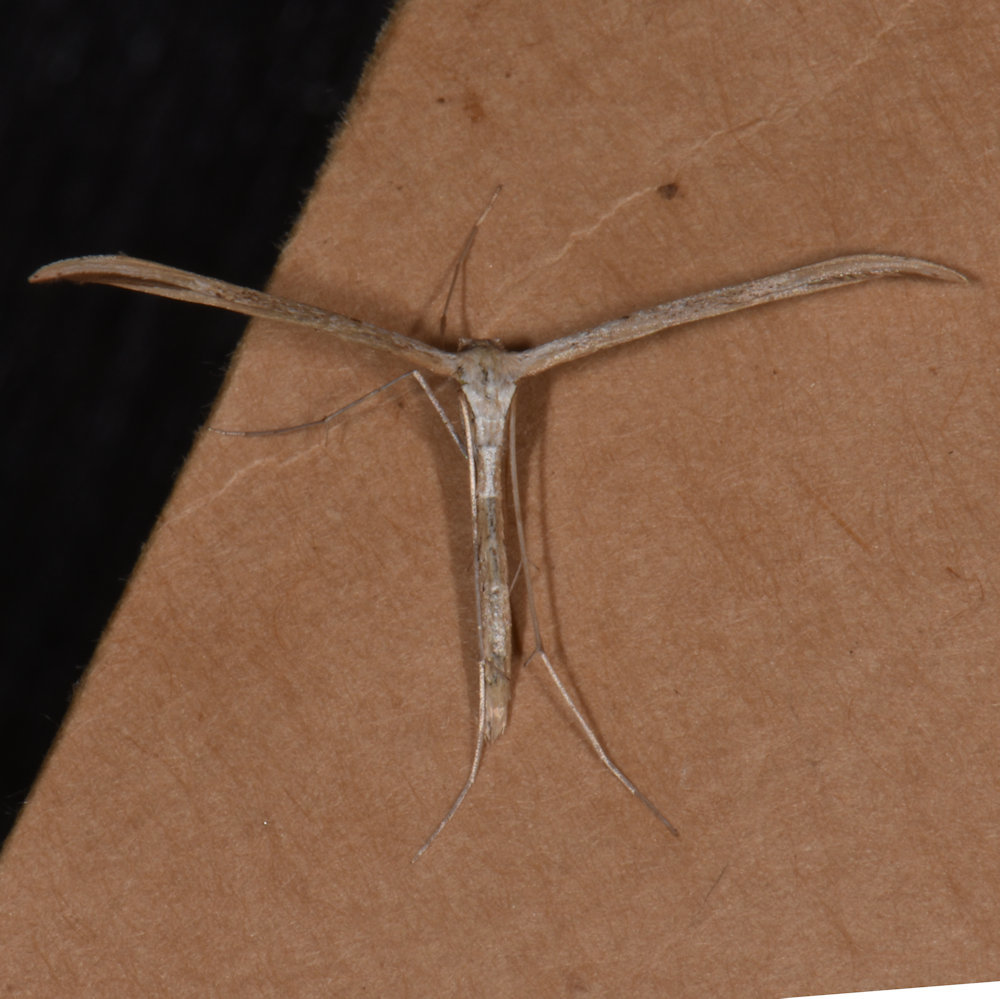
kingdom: Animalia
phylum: Arthropoda
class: Insecta
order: Lepidoptera
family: Pterophoridae
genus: Emmelina
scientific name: Emmelina monodactyla
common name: Common plume
